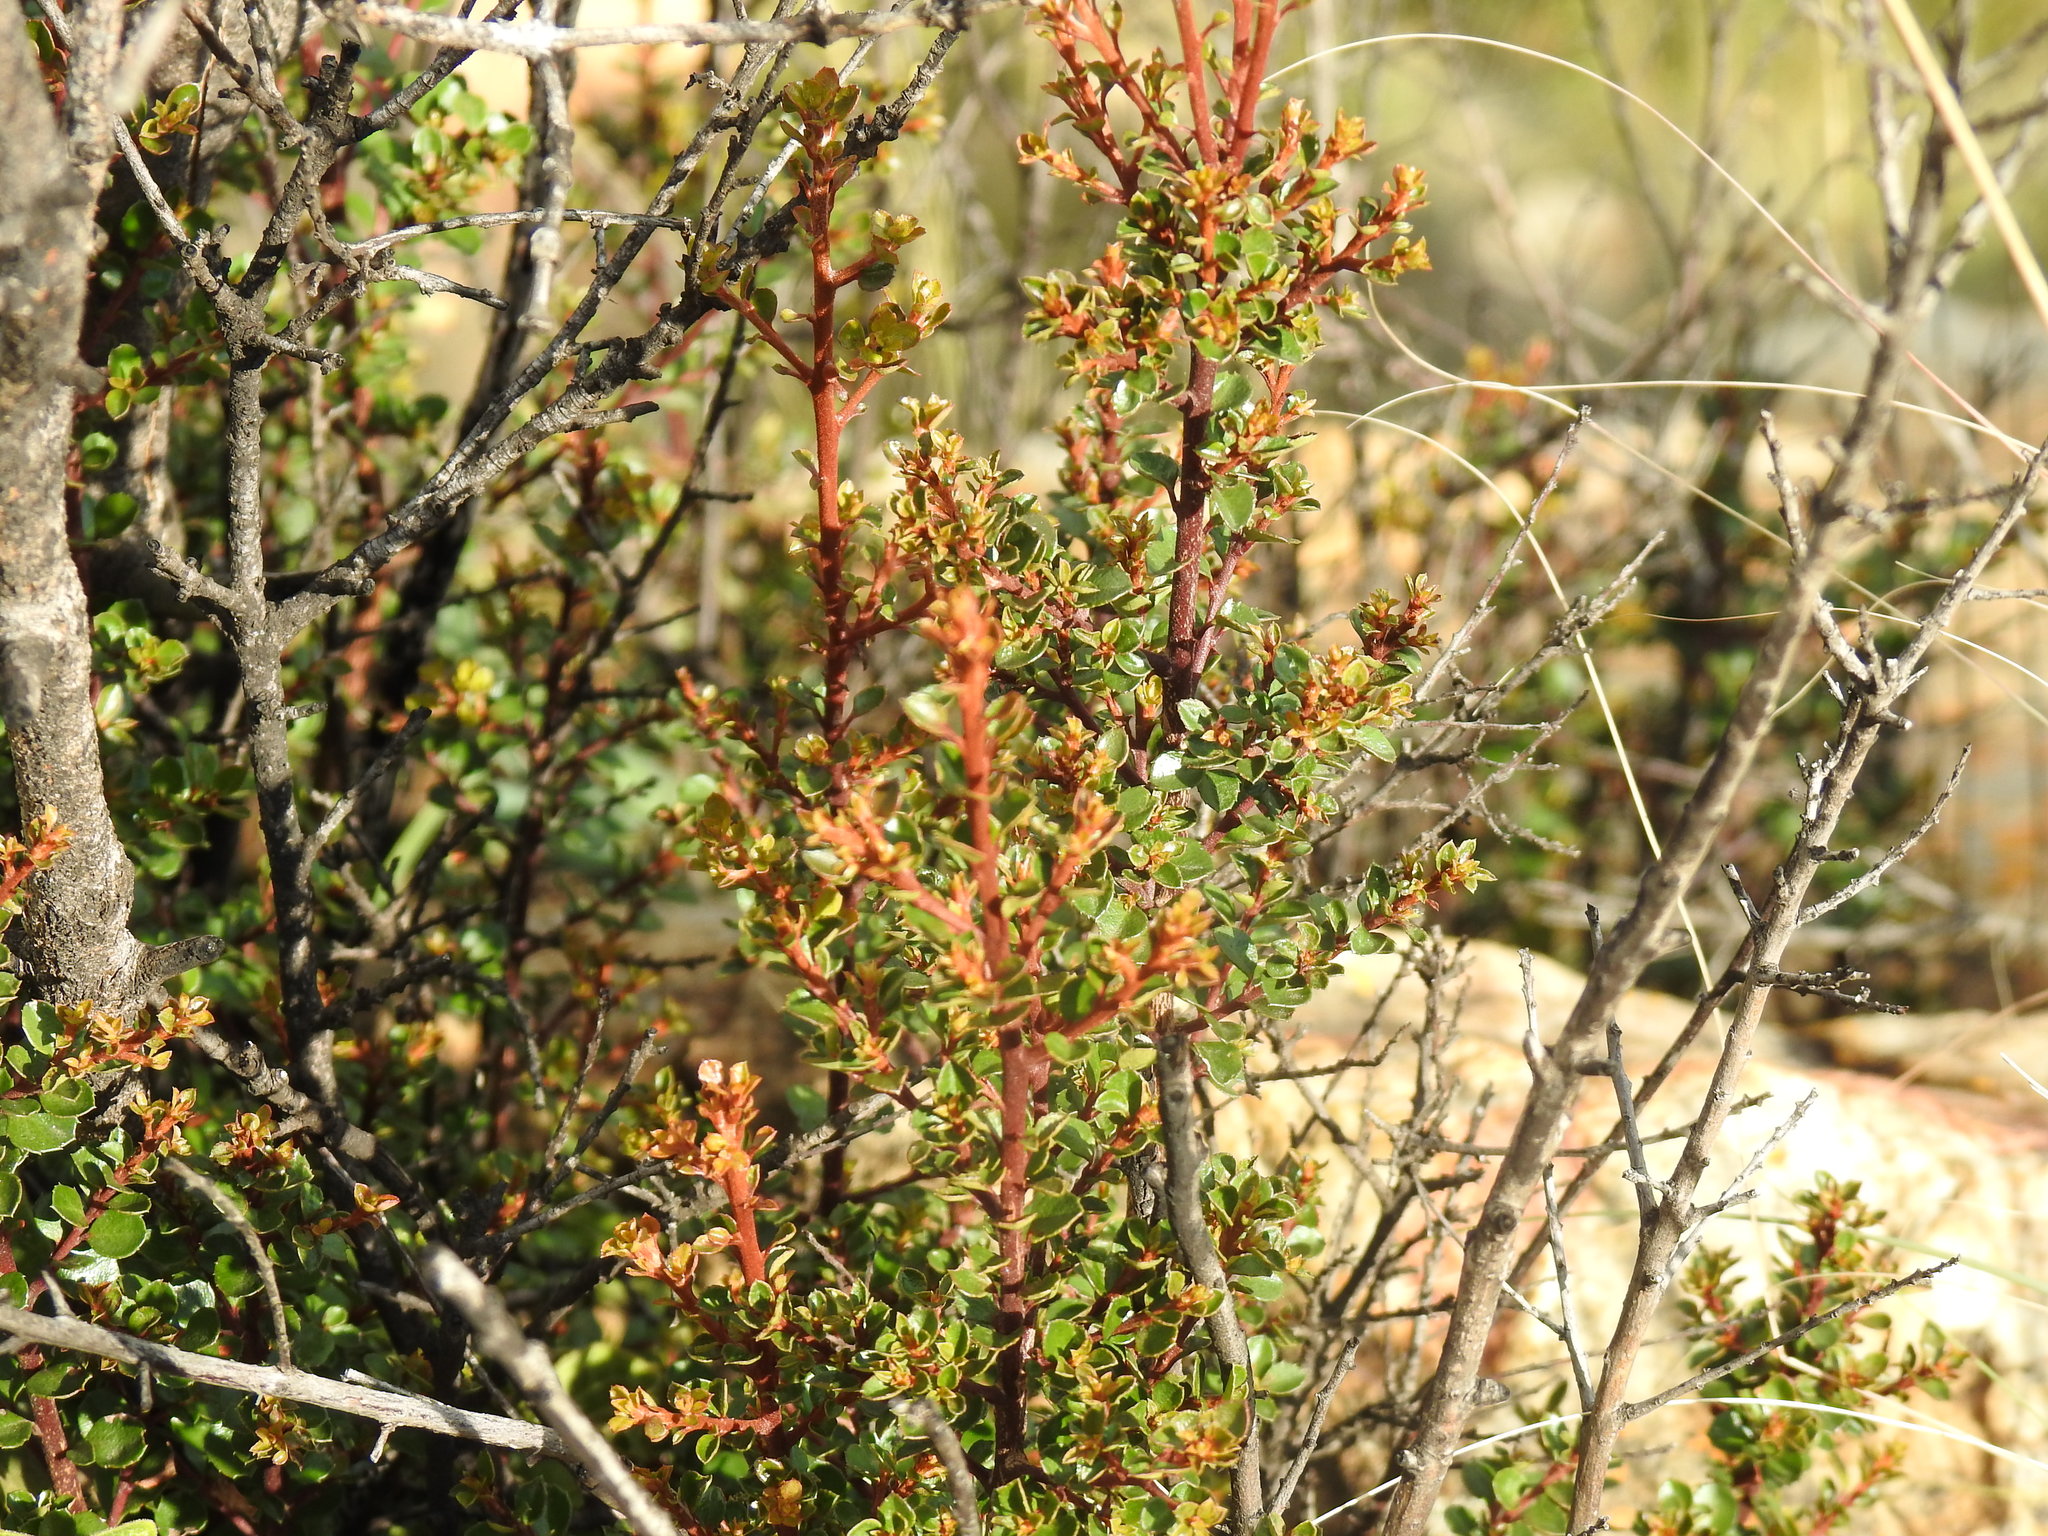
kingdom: Plantae
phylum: Tracheophyta
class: Magnoliopsida
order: Malpighiales
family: Salicaceae
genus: Scolopia
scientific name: Scolopia zeyheri
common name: Thorn pear
